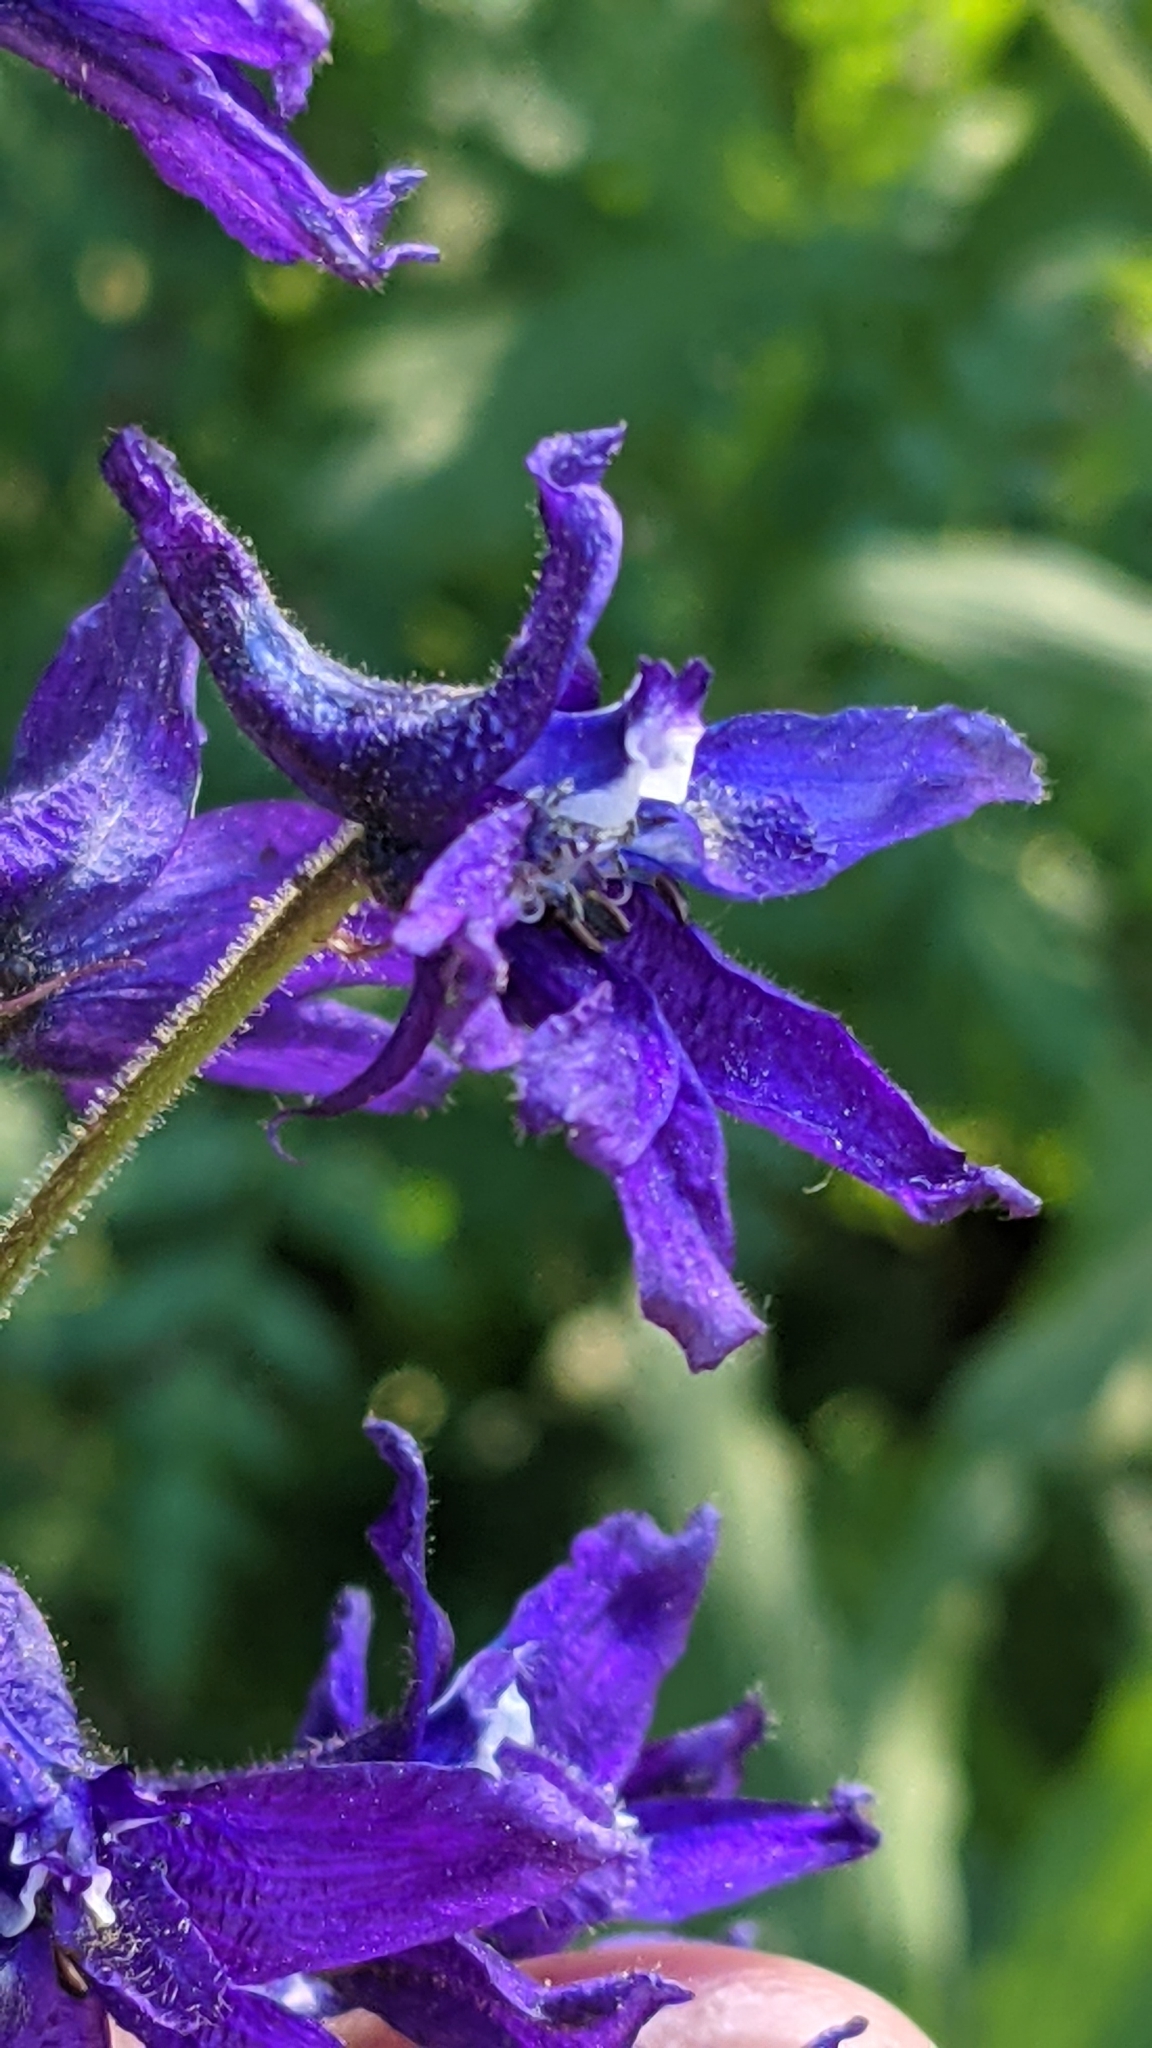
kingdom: Plantae
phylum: Tracheophyta
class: Magnoliopsida
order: Ranunculales
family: Ranunculaceae
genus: Delphinium
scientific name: Delphinium barbeyi
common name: Subalpine larkspur
